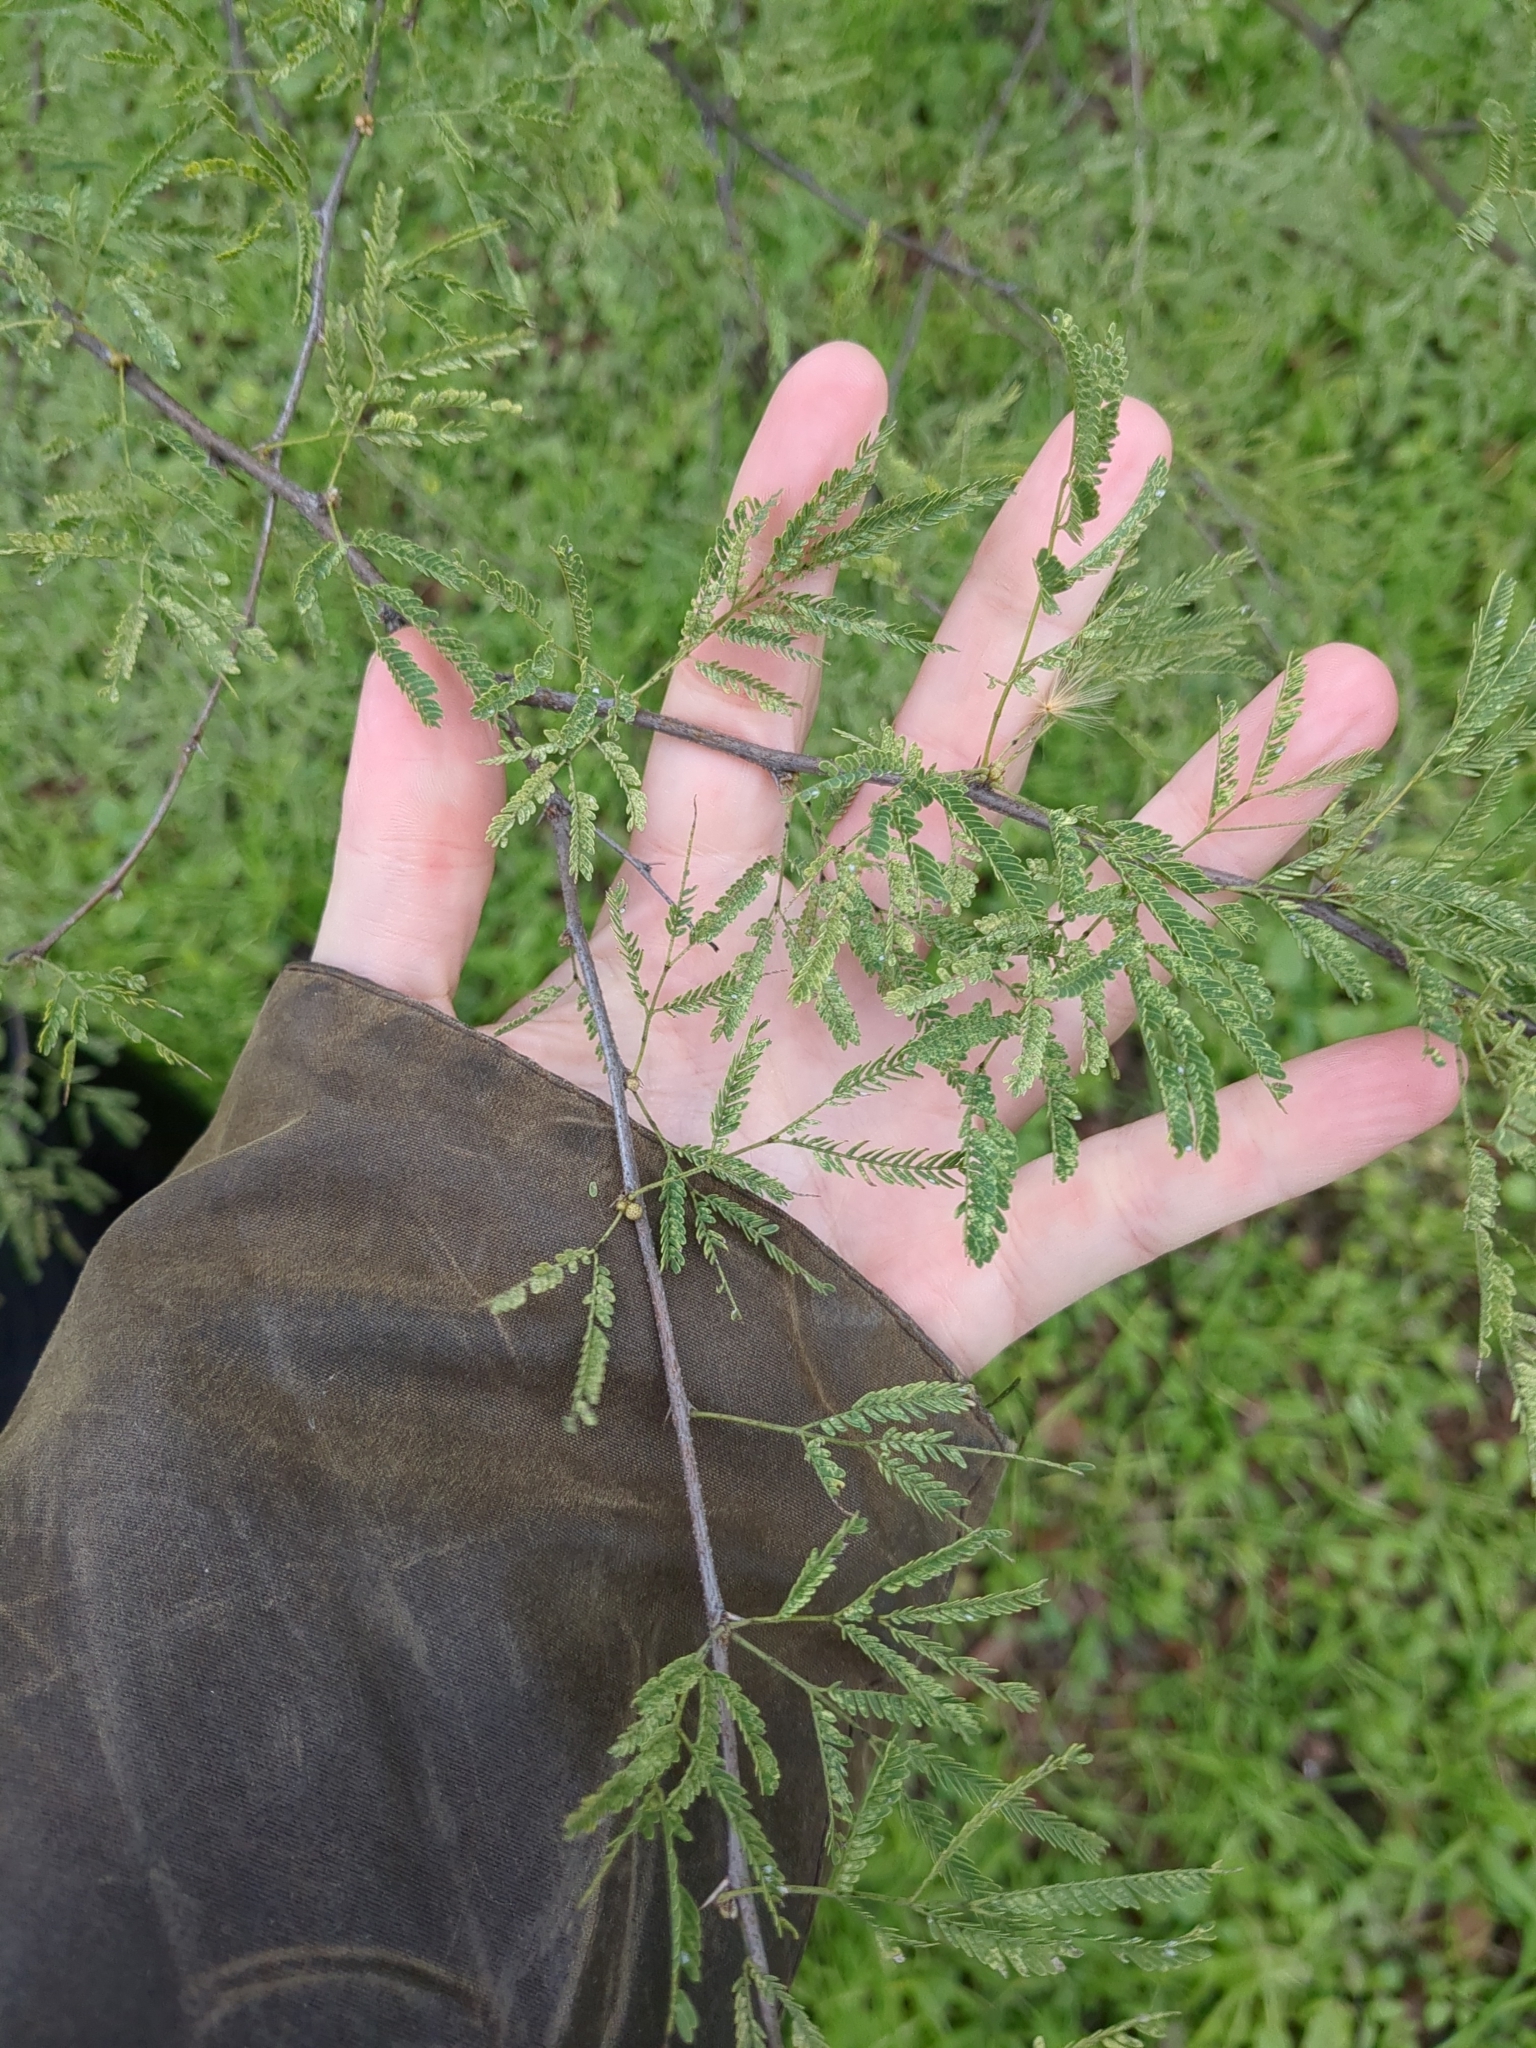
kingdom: Plantae
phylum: Tracheophyta
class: Magnoliopsida
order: Fabales
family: Fabaceae
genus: Vachellia
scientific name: Vachellia farnesiana
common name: Sweet acacia
